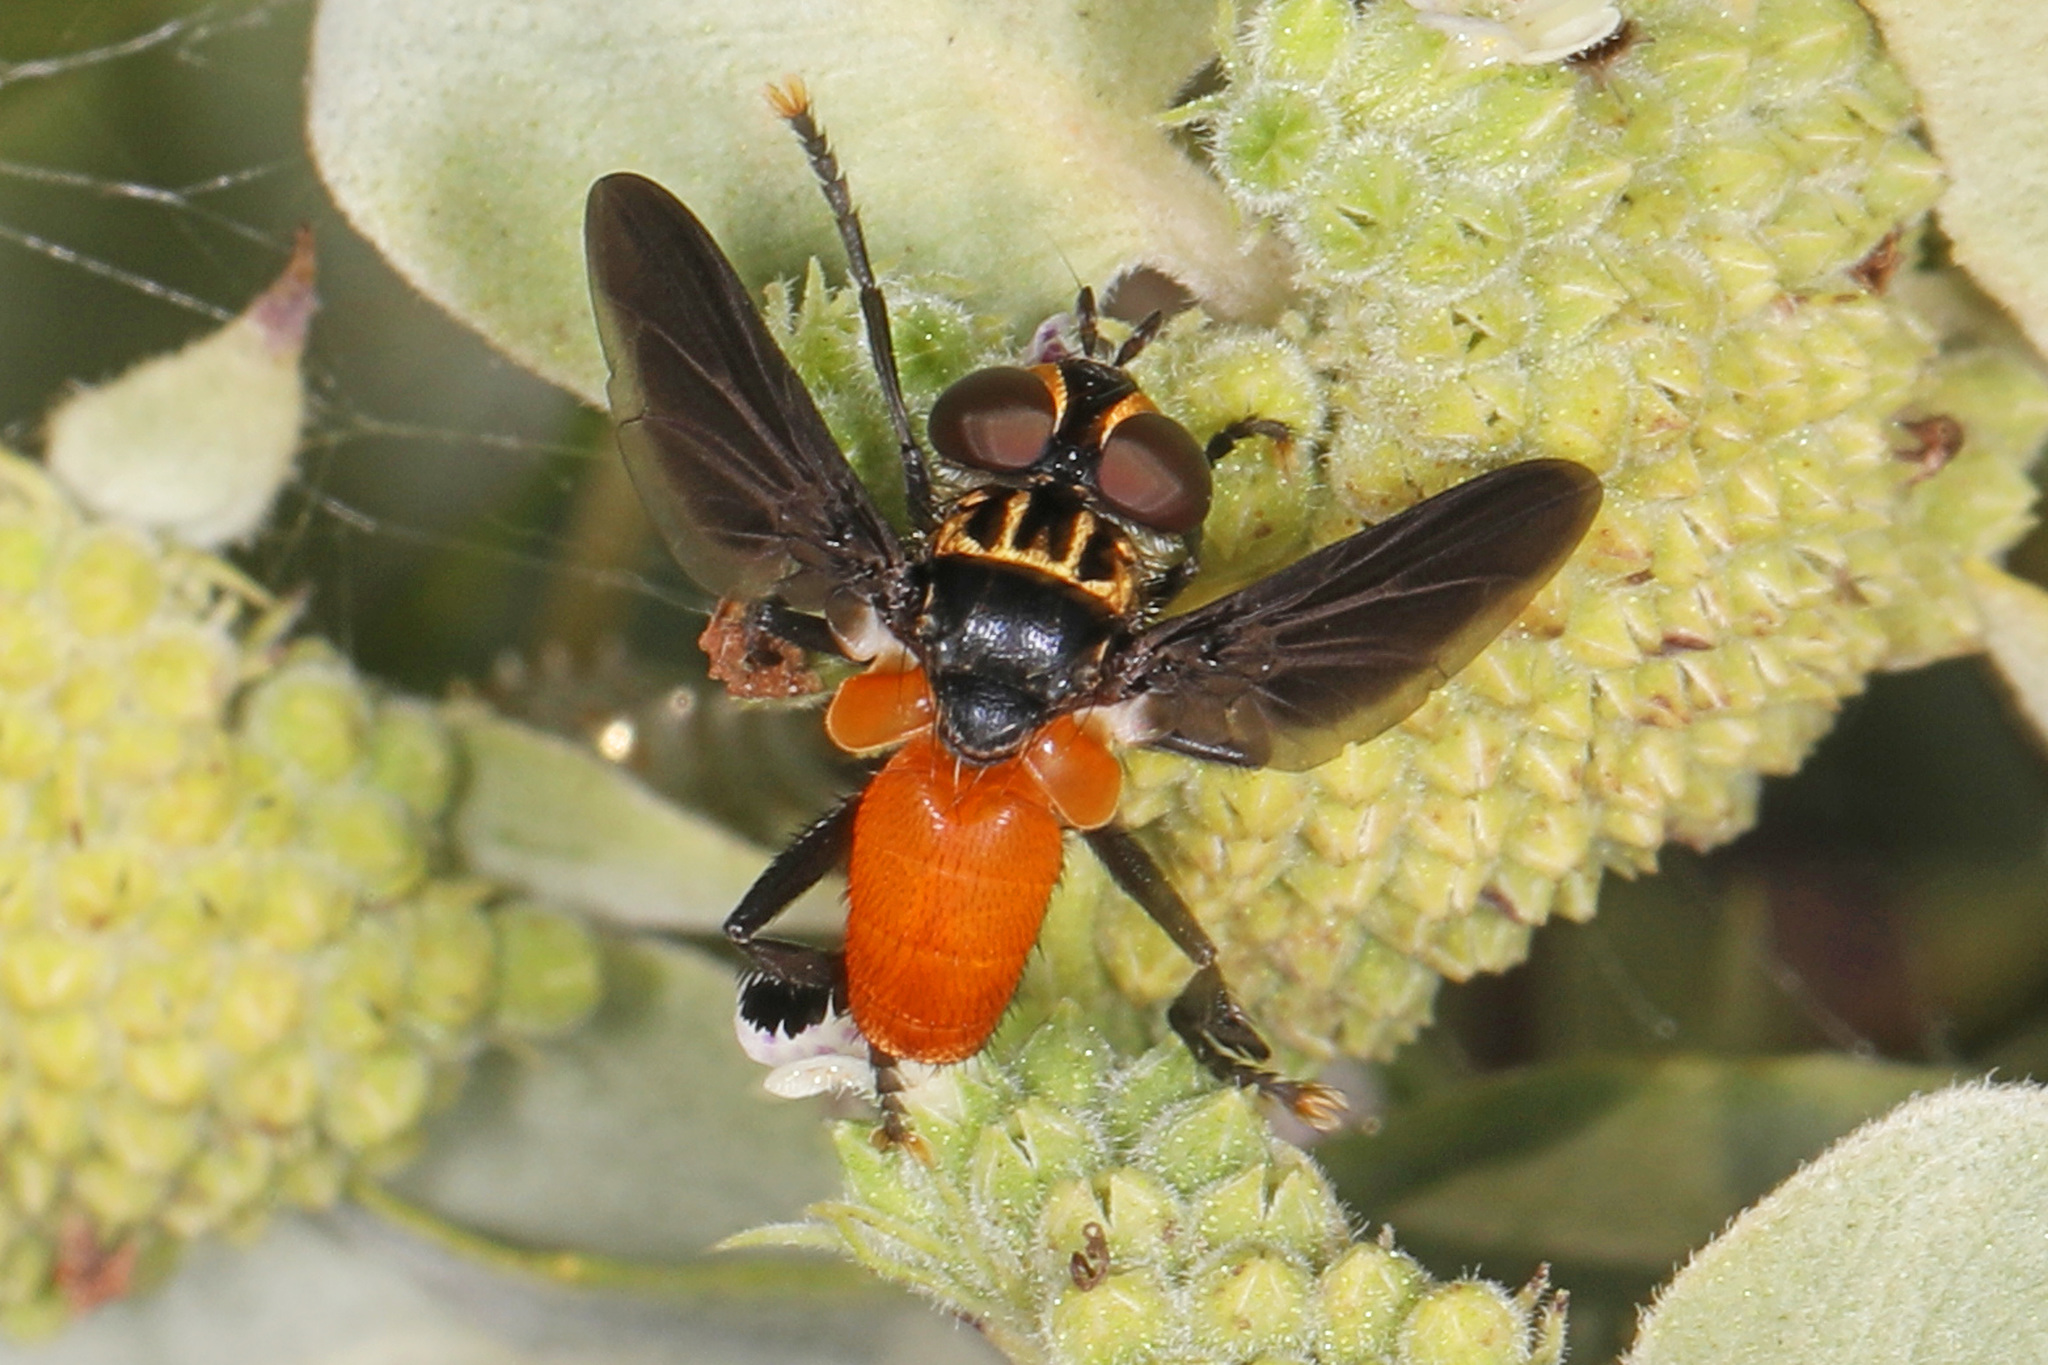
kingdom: Animalia
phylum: Arthropoda
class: Insecta
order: Diptera
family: Tachinidae
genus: Trichopoda
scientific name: Trichopoda pennipes
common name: Tachinid fly
